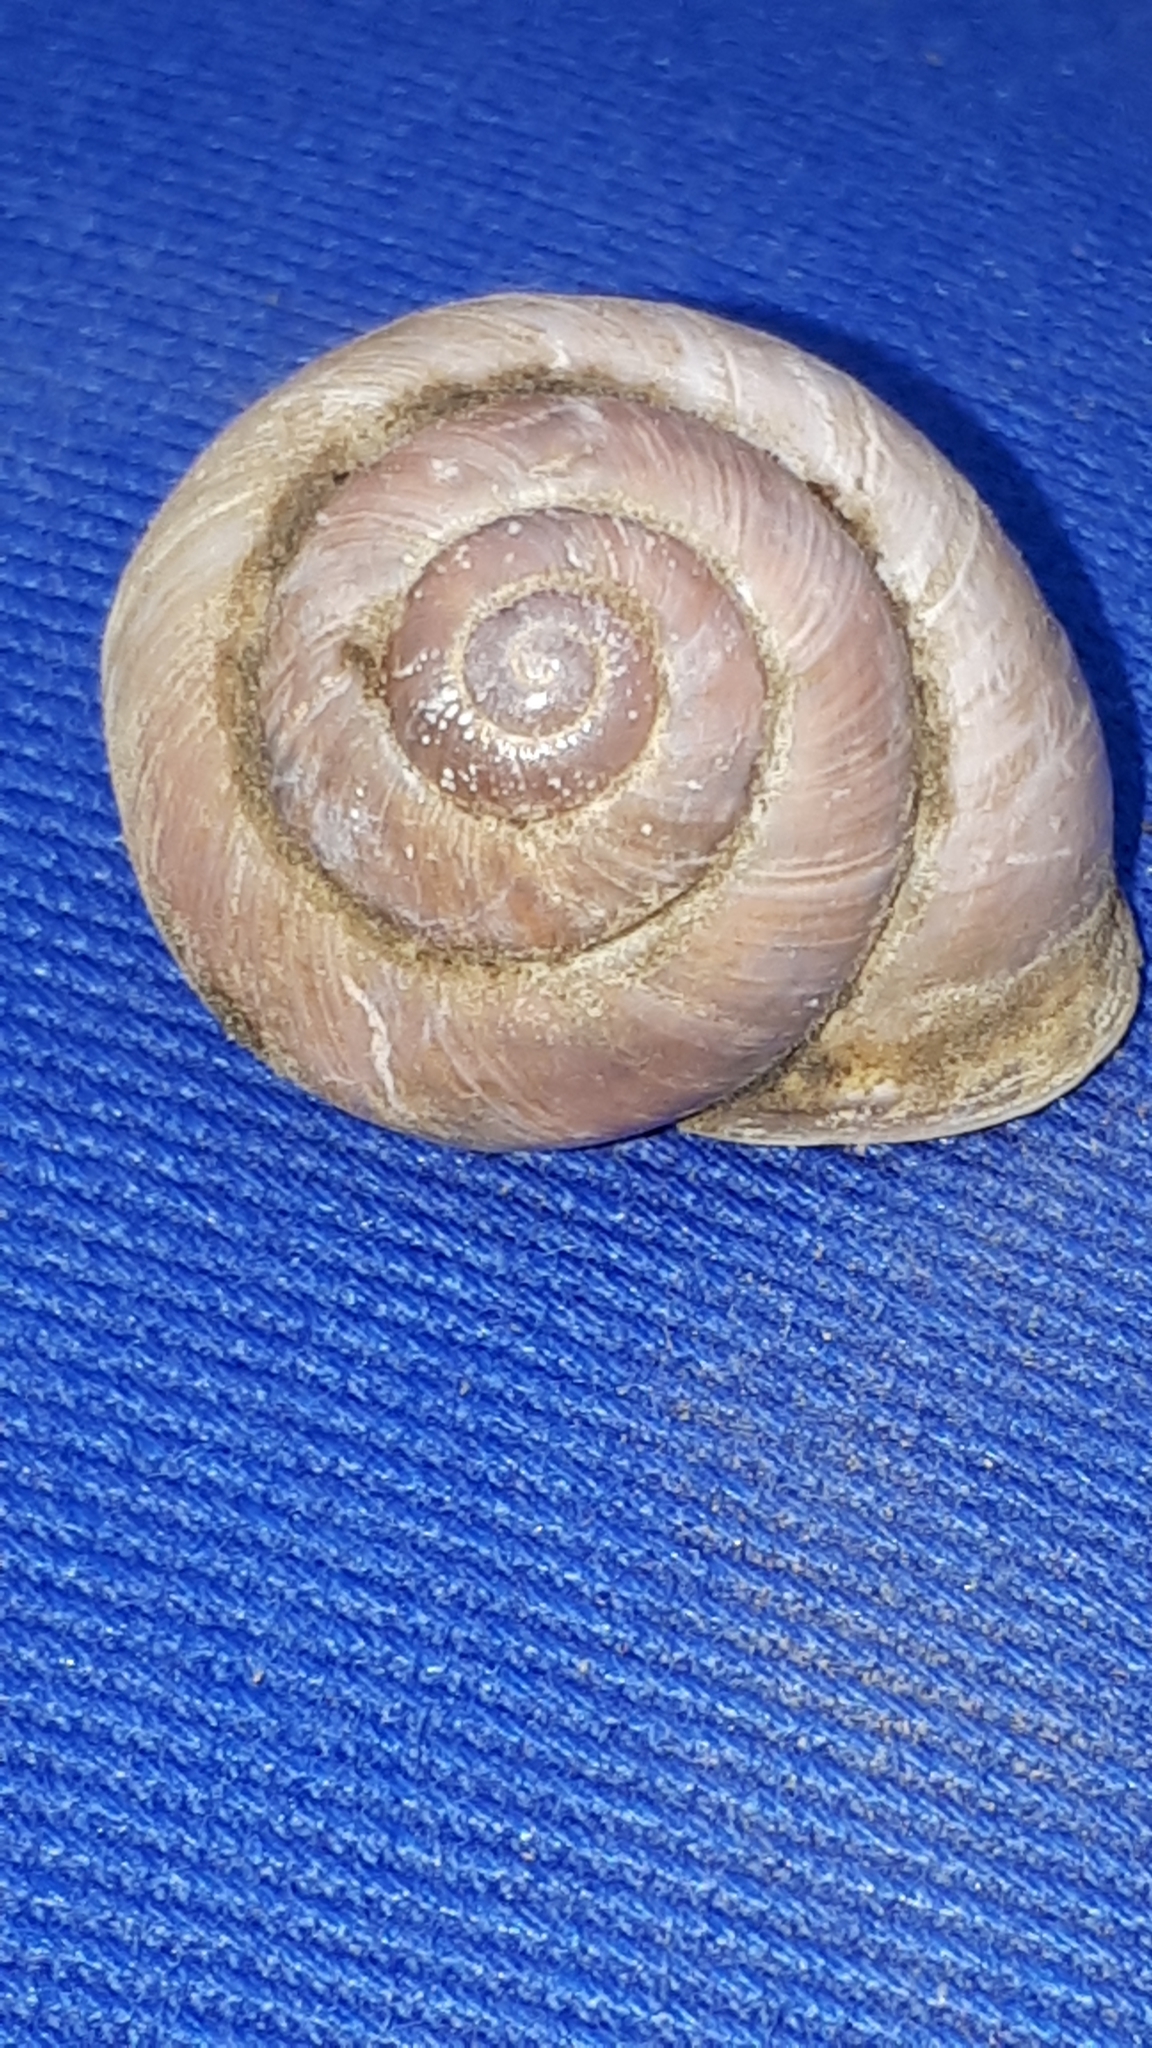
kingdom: Animalia
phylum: Mollusca
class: Gastropoda
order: Stylommatophora
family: Helicidae
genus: Cepaea
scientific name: Cepaea nemoralis
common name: Grovesnail
